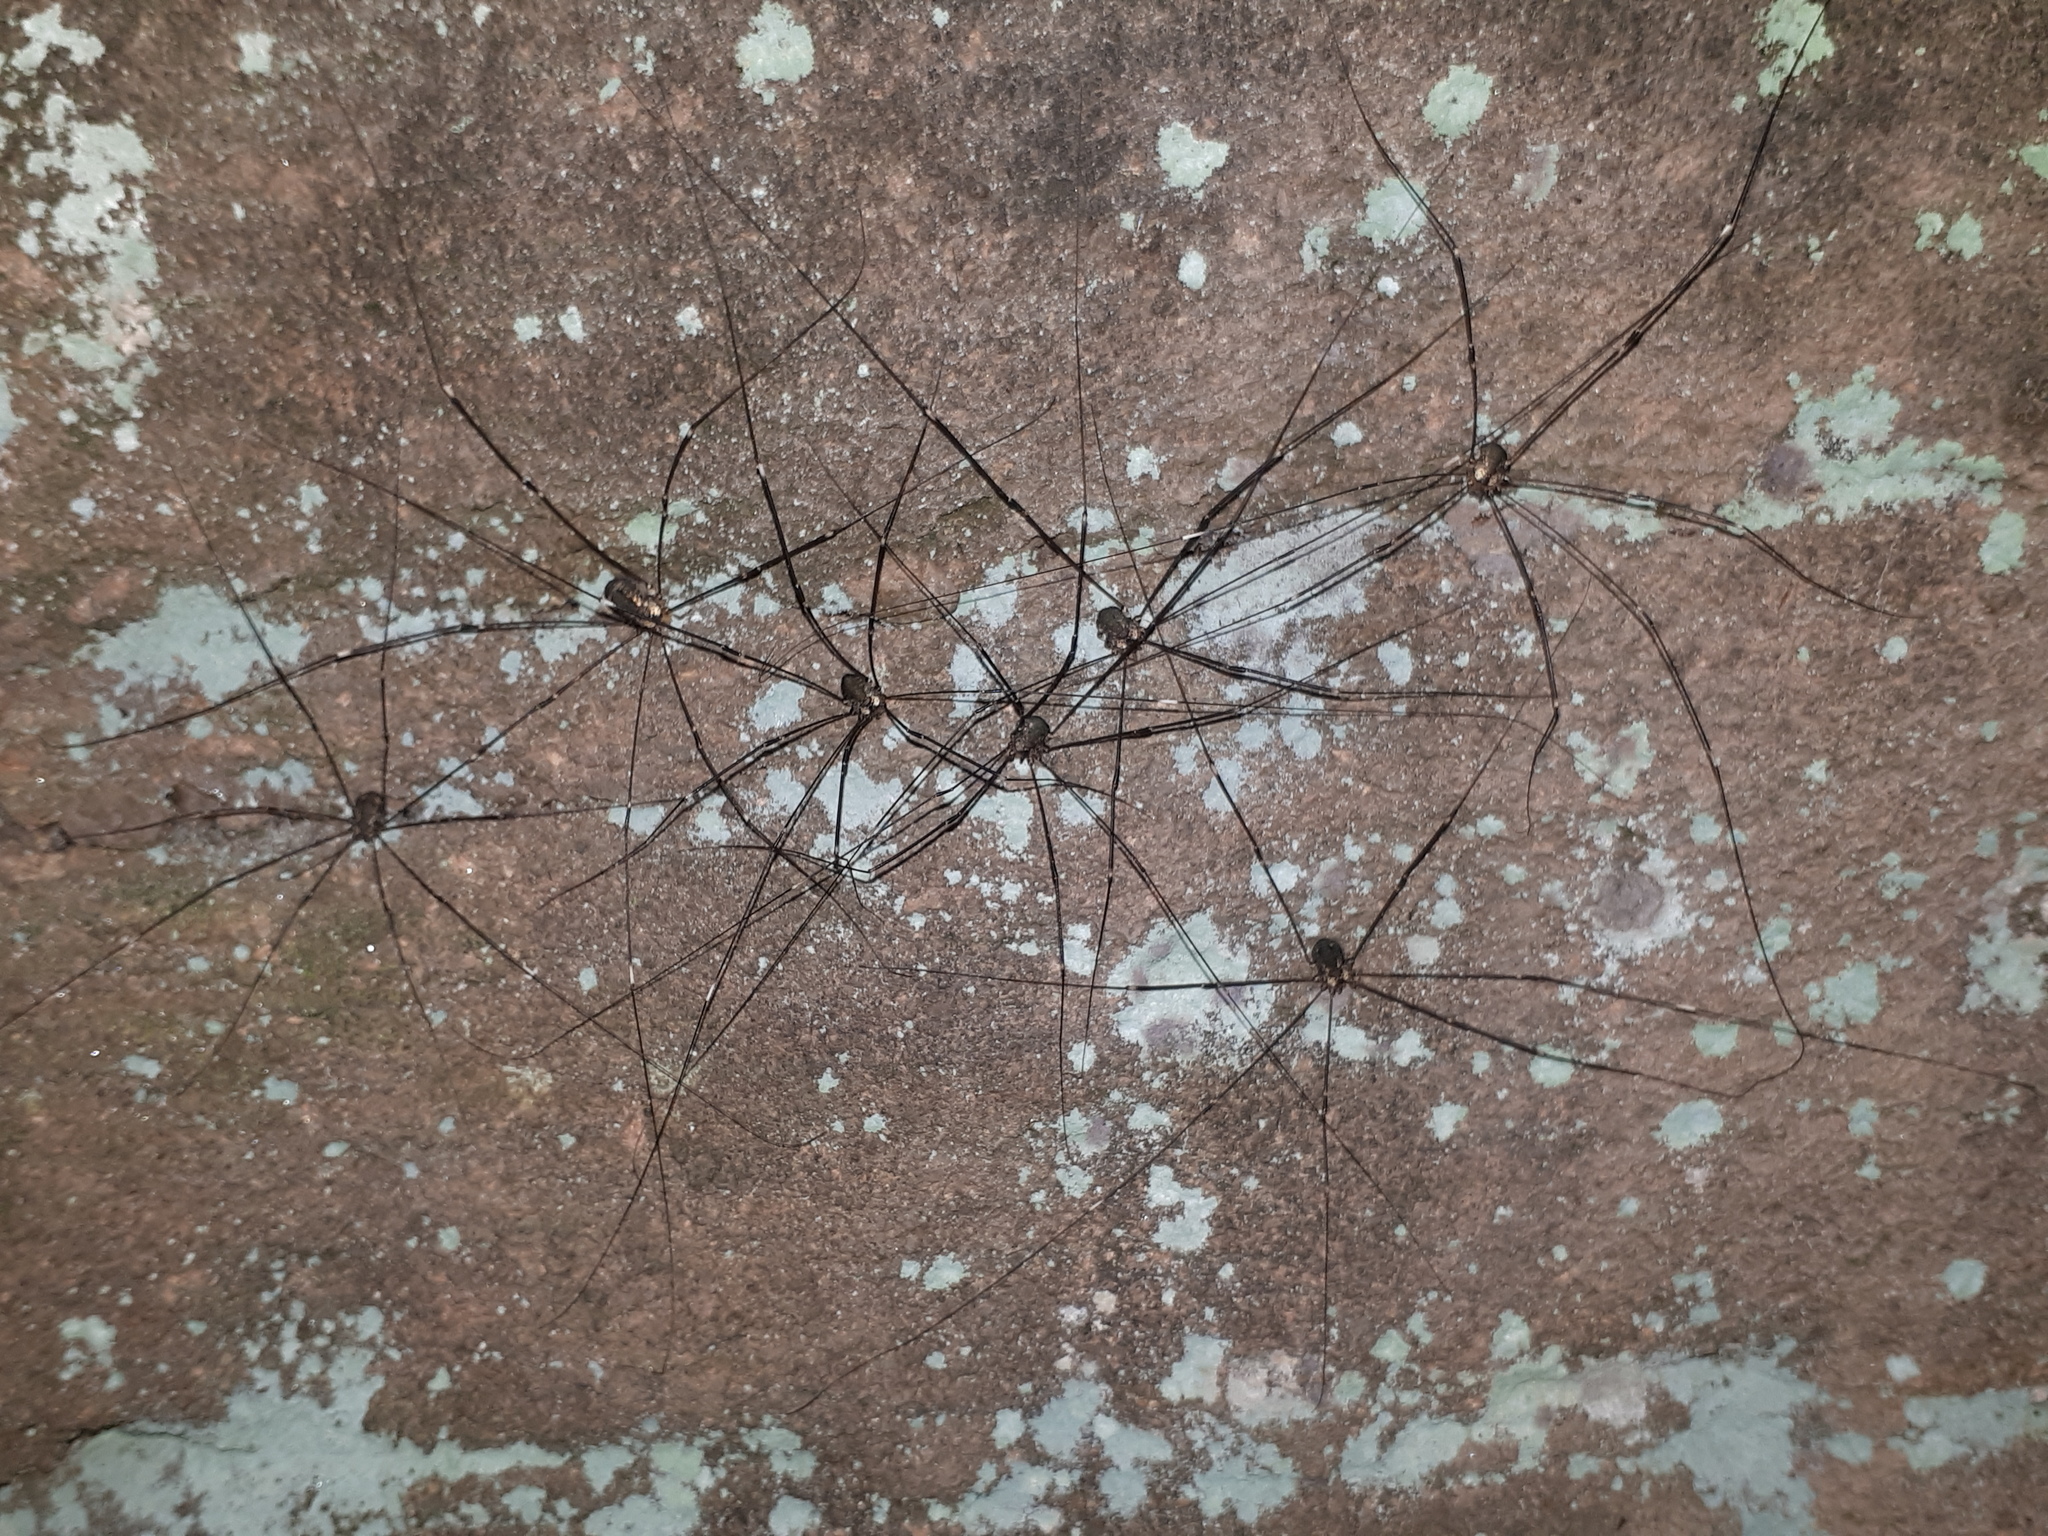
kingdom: Animalia
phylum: Arthropoda
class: Arachnida
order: Opiliones
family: Sclerosomatidae
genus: Leiobunum
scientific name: Leiobunum
